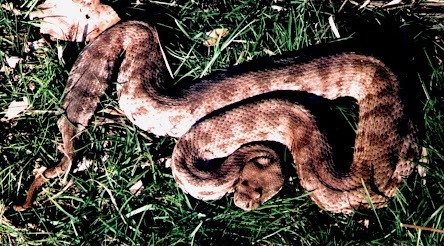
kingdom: Animalia
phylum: Chordata
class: Squamata
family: Viperidae
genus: Macrovipera
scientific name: Macrovipera lebetinus
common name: Levantine viper
